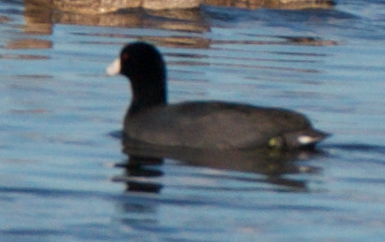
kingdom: Animalia
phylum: Chordata
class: Aves
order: Gruiformes
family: Rallidae
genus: Fulica
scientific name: Fulica americana
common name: American coot
